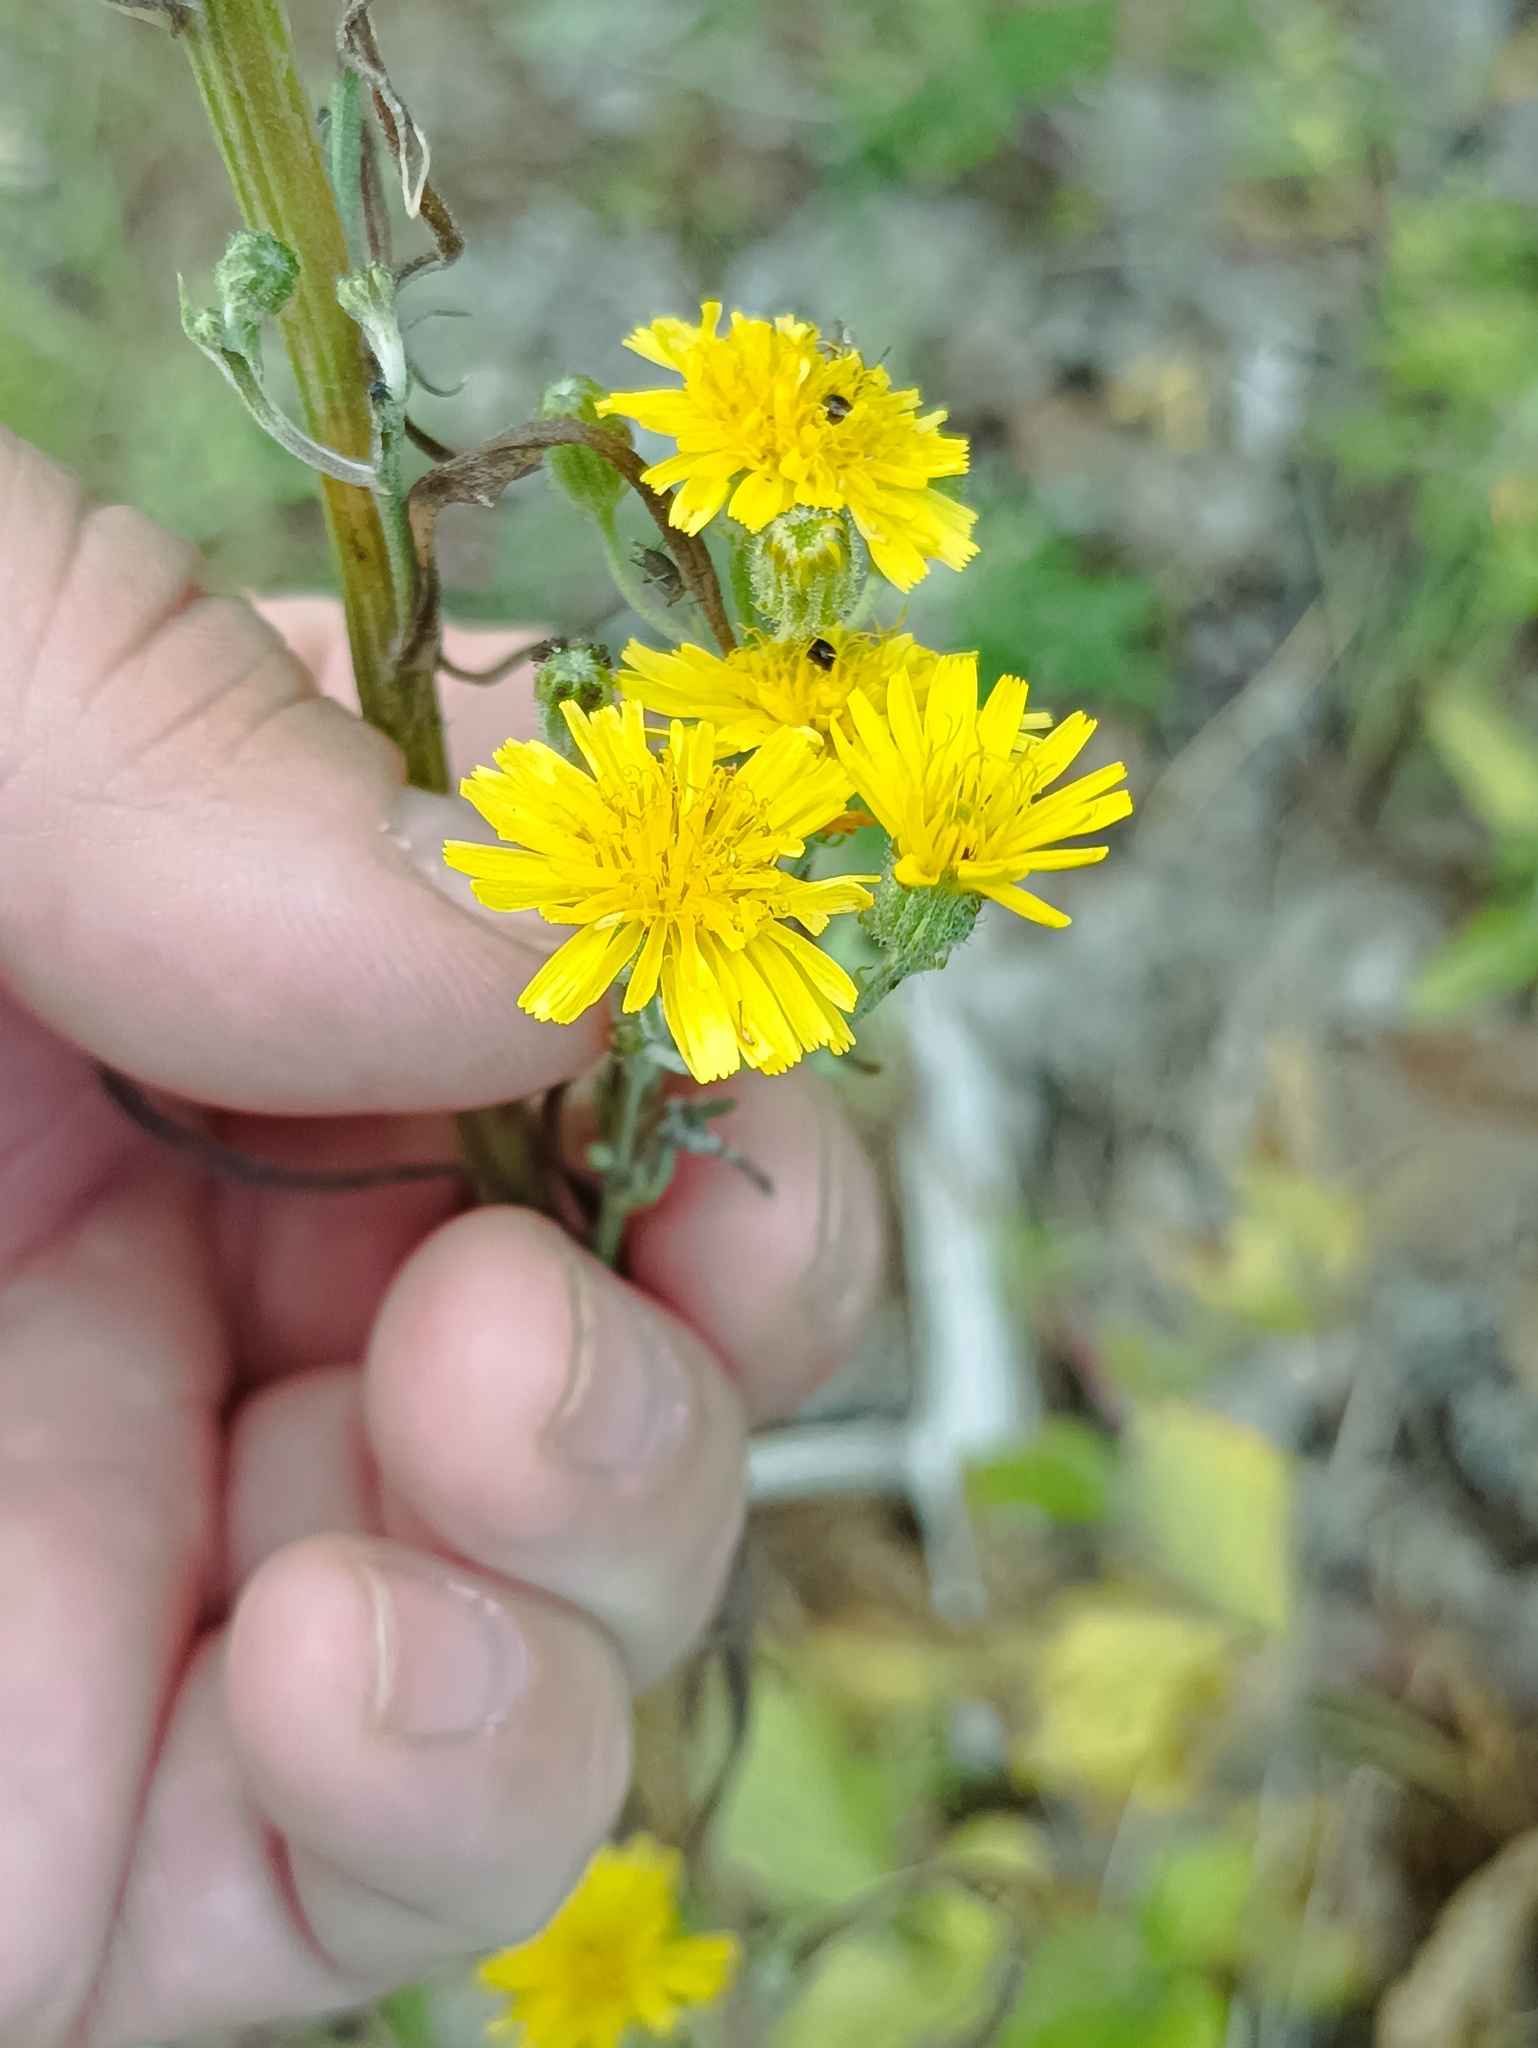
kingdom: Plantae
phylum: Tracheophyta
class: Magnoliopsida
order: Asterales
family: Asteraceae
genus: Crepis
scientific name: Crepis tectorum
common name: Narrow-leaved hawk's-beard
